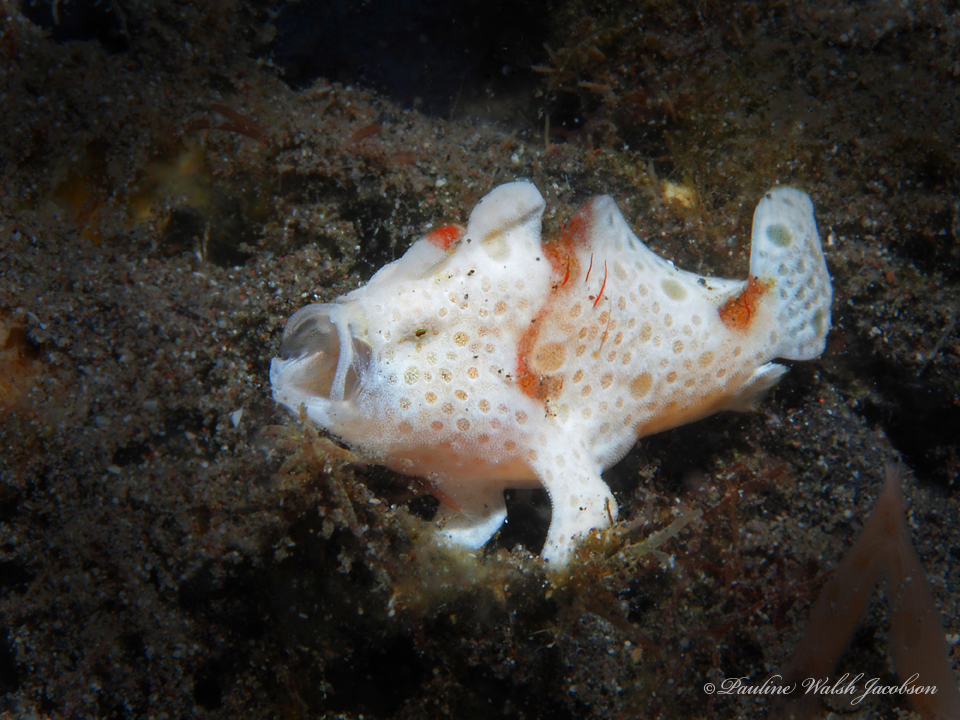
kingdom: Animalia
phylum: Chordata
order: Lophiiformes
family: Antennariidae
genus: Antennarius
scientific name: Antennarius pictus
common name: Painted frogfish
